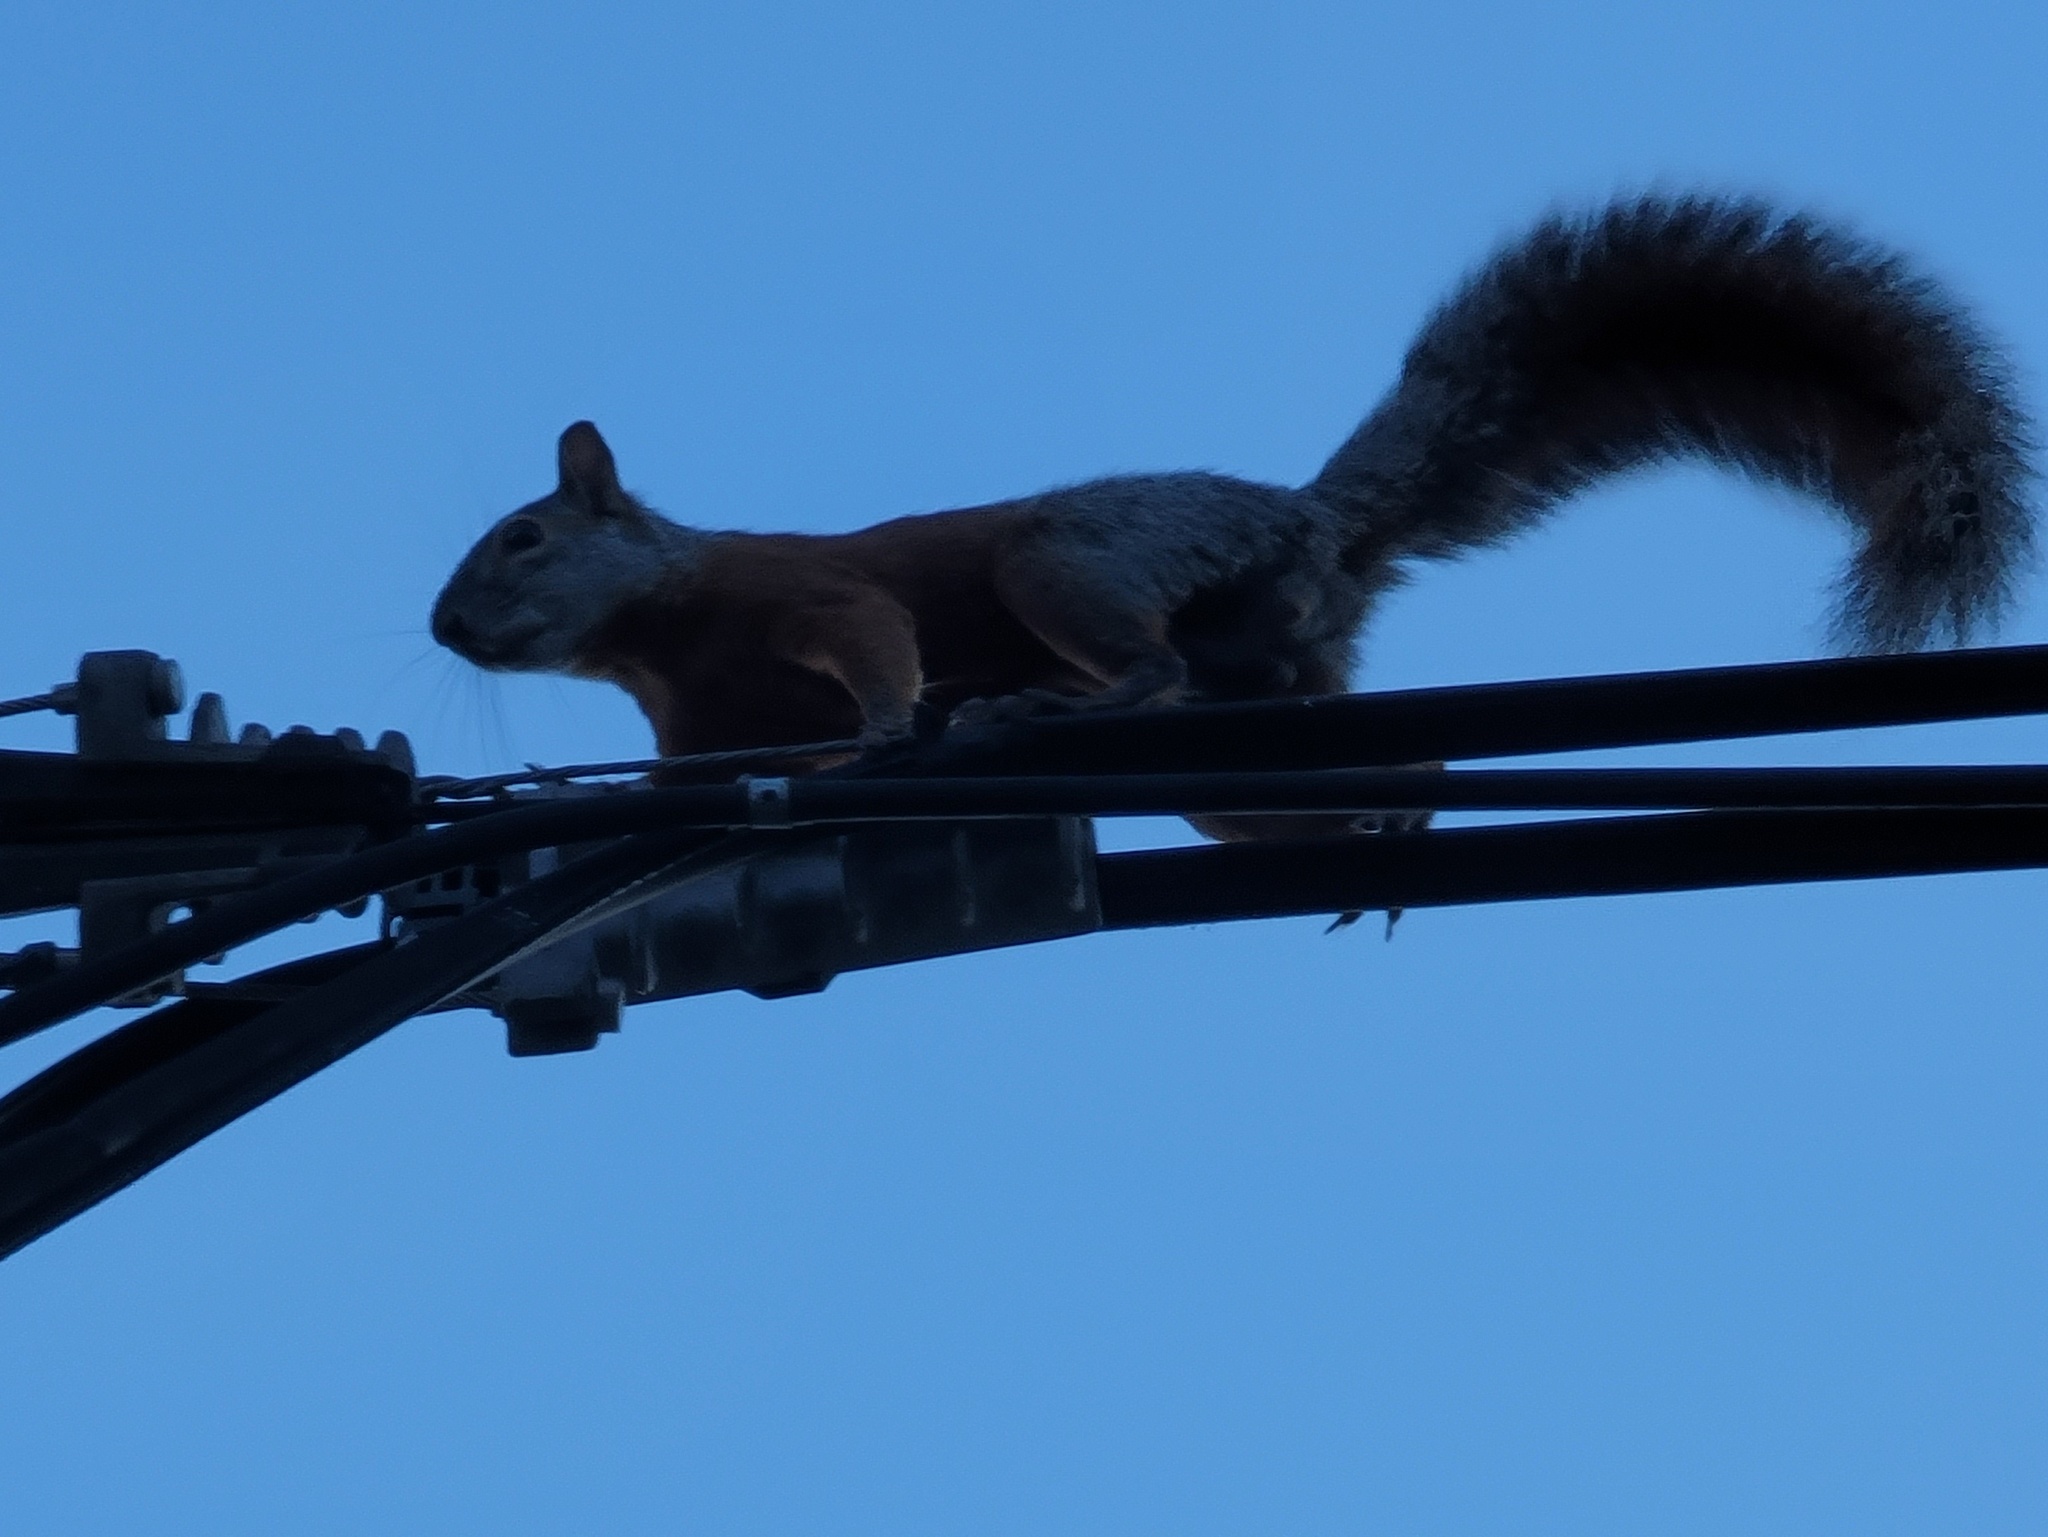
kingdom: Animalia
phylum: Chordata
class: Mammalia
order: Rodentia
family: Sciuridae
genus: Sciurus
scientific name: Sciurus aureogaster
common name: Red-bellied squirrel
